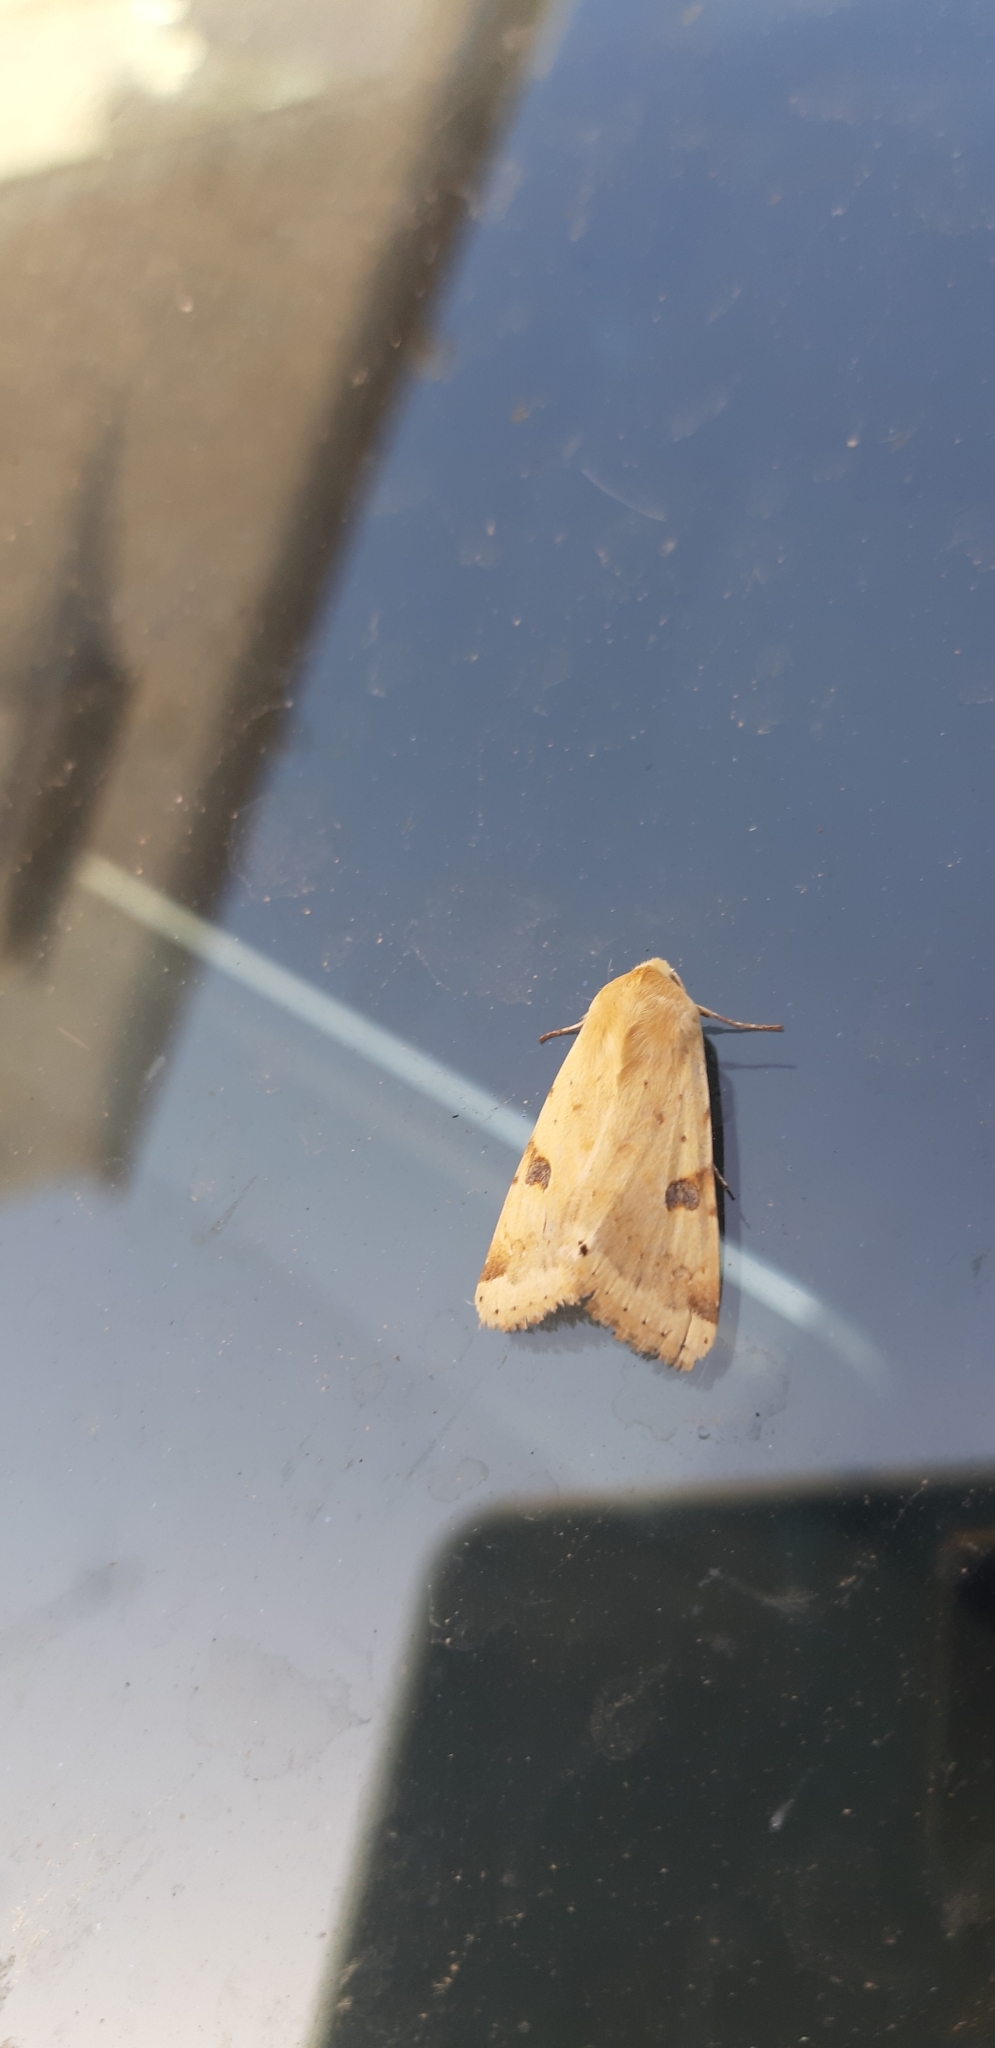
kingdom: Animalia
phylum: Arthropoda
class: Insecta
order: Lepidoptera
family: Noctuidae
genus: Heliothis
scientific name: Heliothis peltigera
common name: Bordered straw
